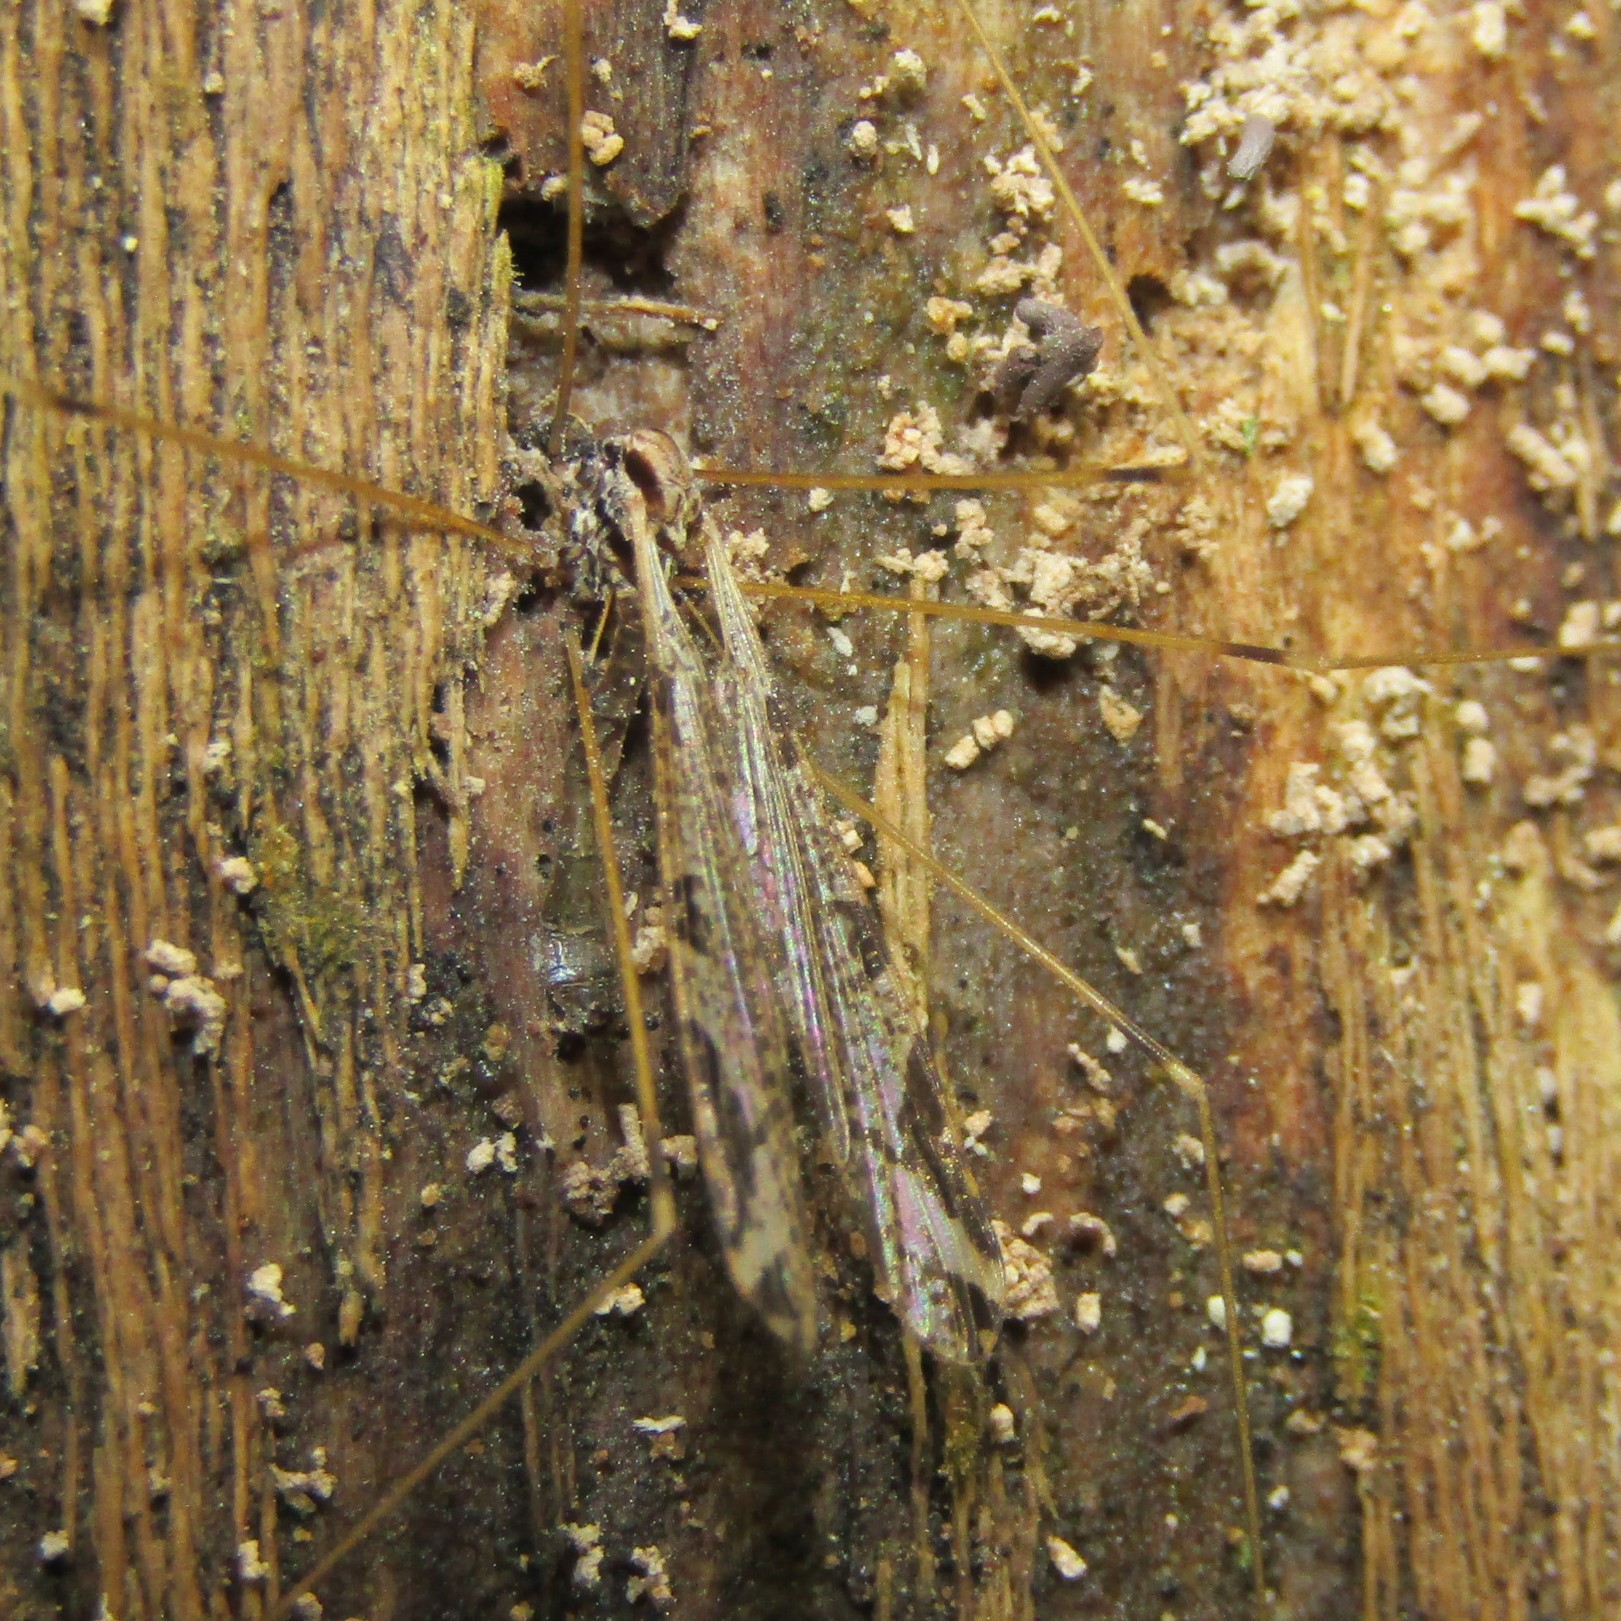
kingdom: Animalia
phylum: Arthropoda
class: Insecta
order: Diptera
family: Limoniidae
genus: Discobola
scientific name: Discobola striata
